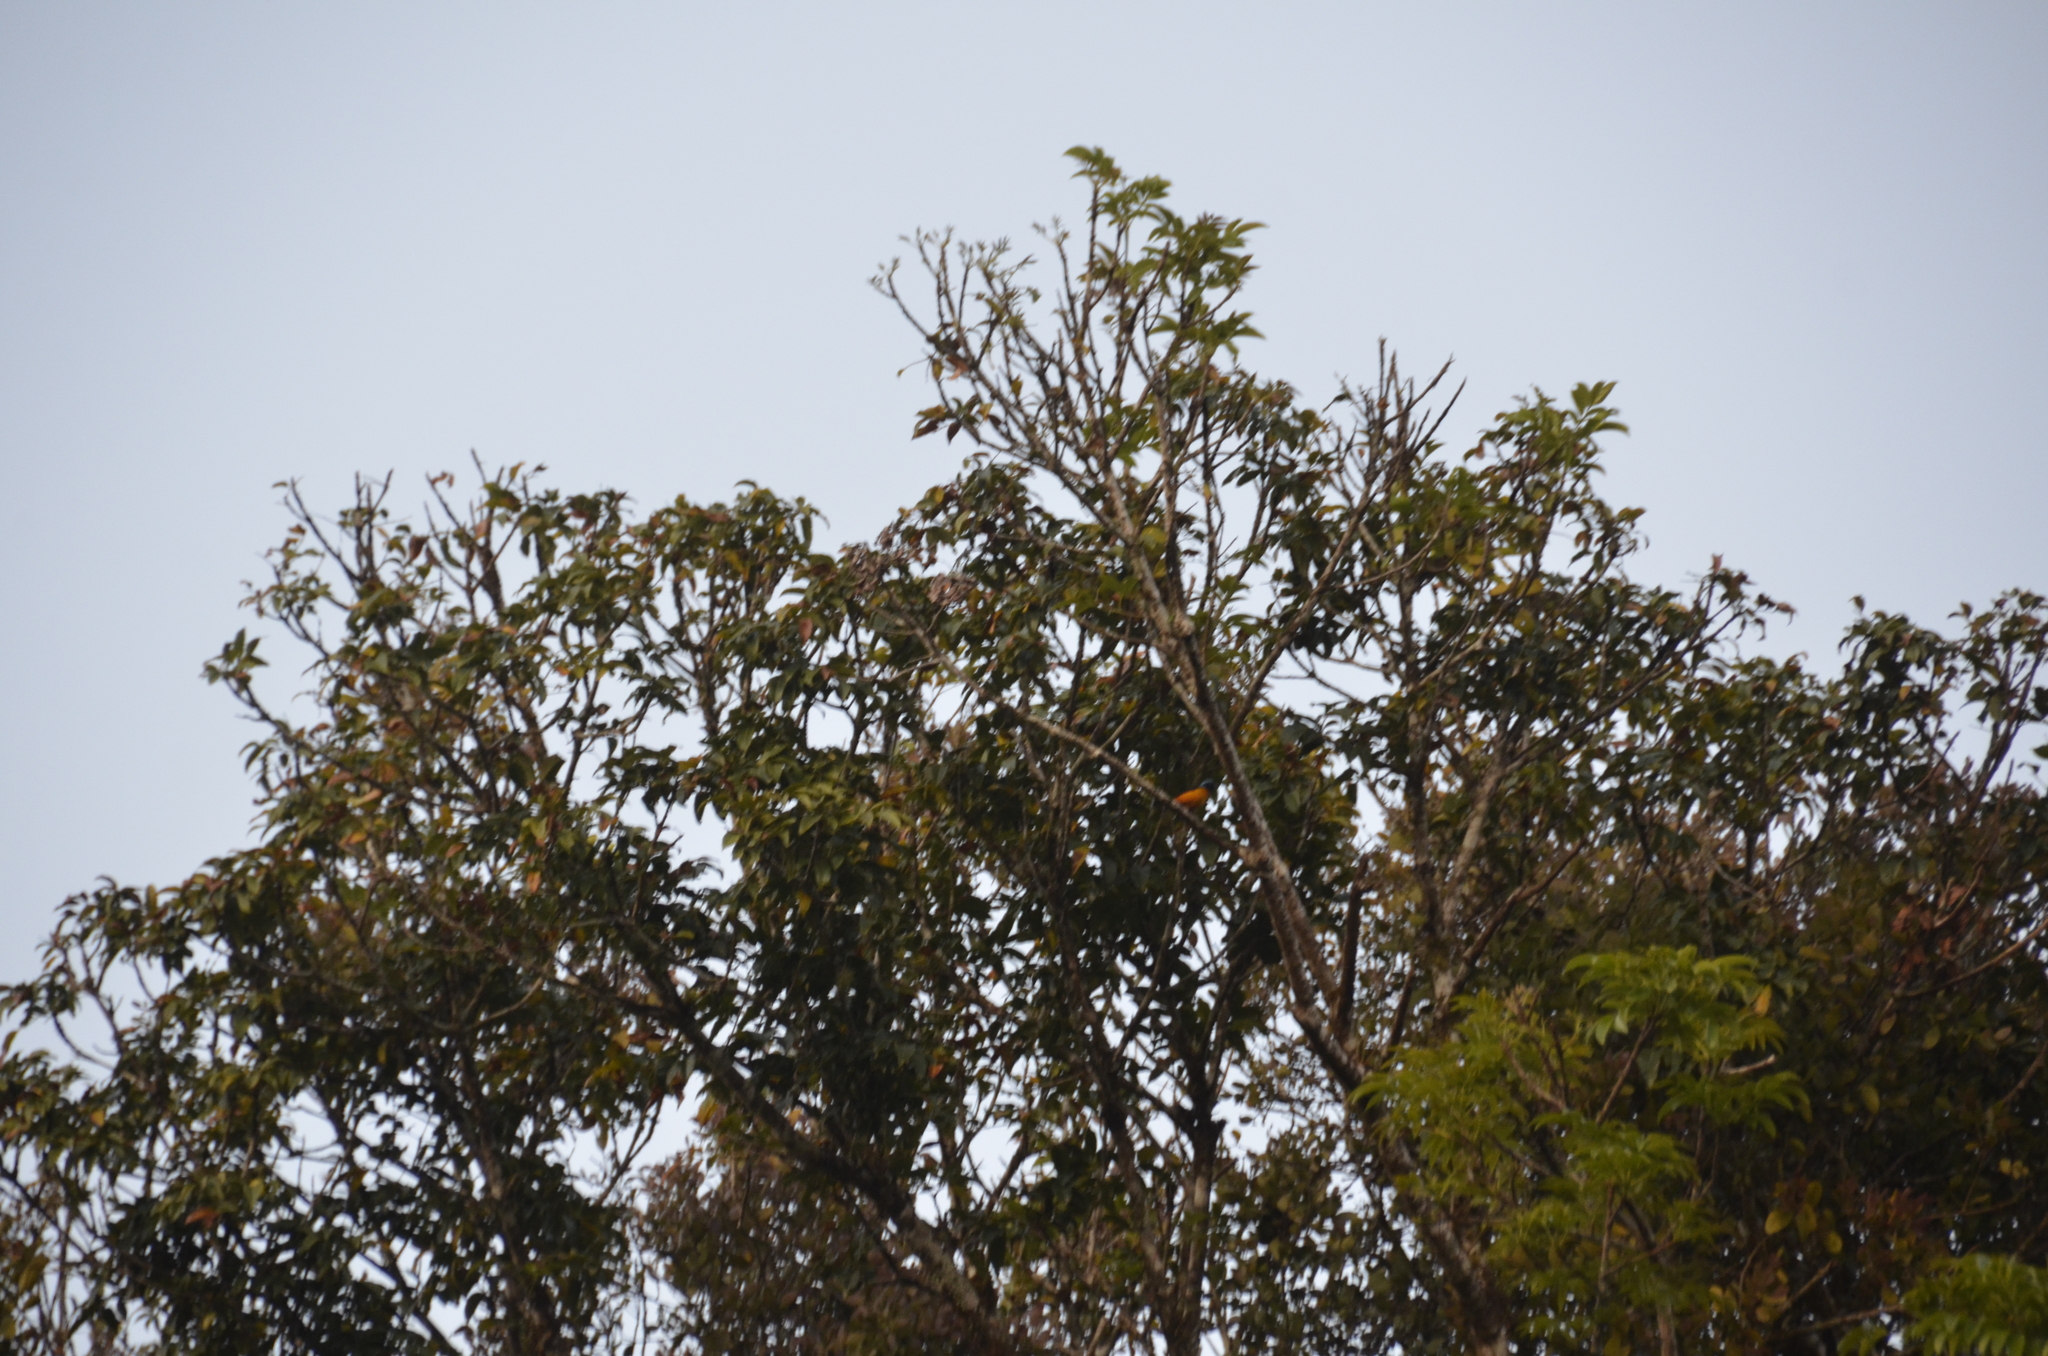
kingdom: Animalia
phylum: Chordata
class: Aves
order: Passeriformes
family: Fringillidae
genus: Euphonia
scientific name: Euphonia elegantissima
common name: Elegant euphonia
